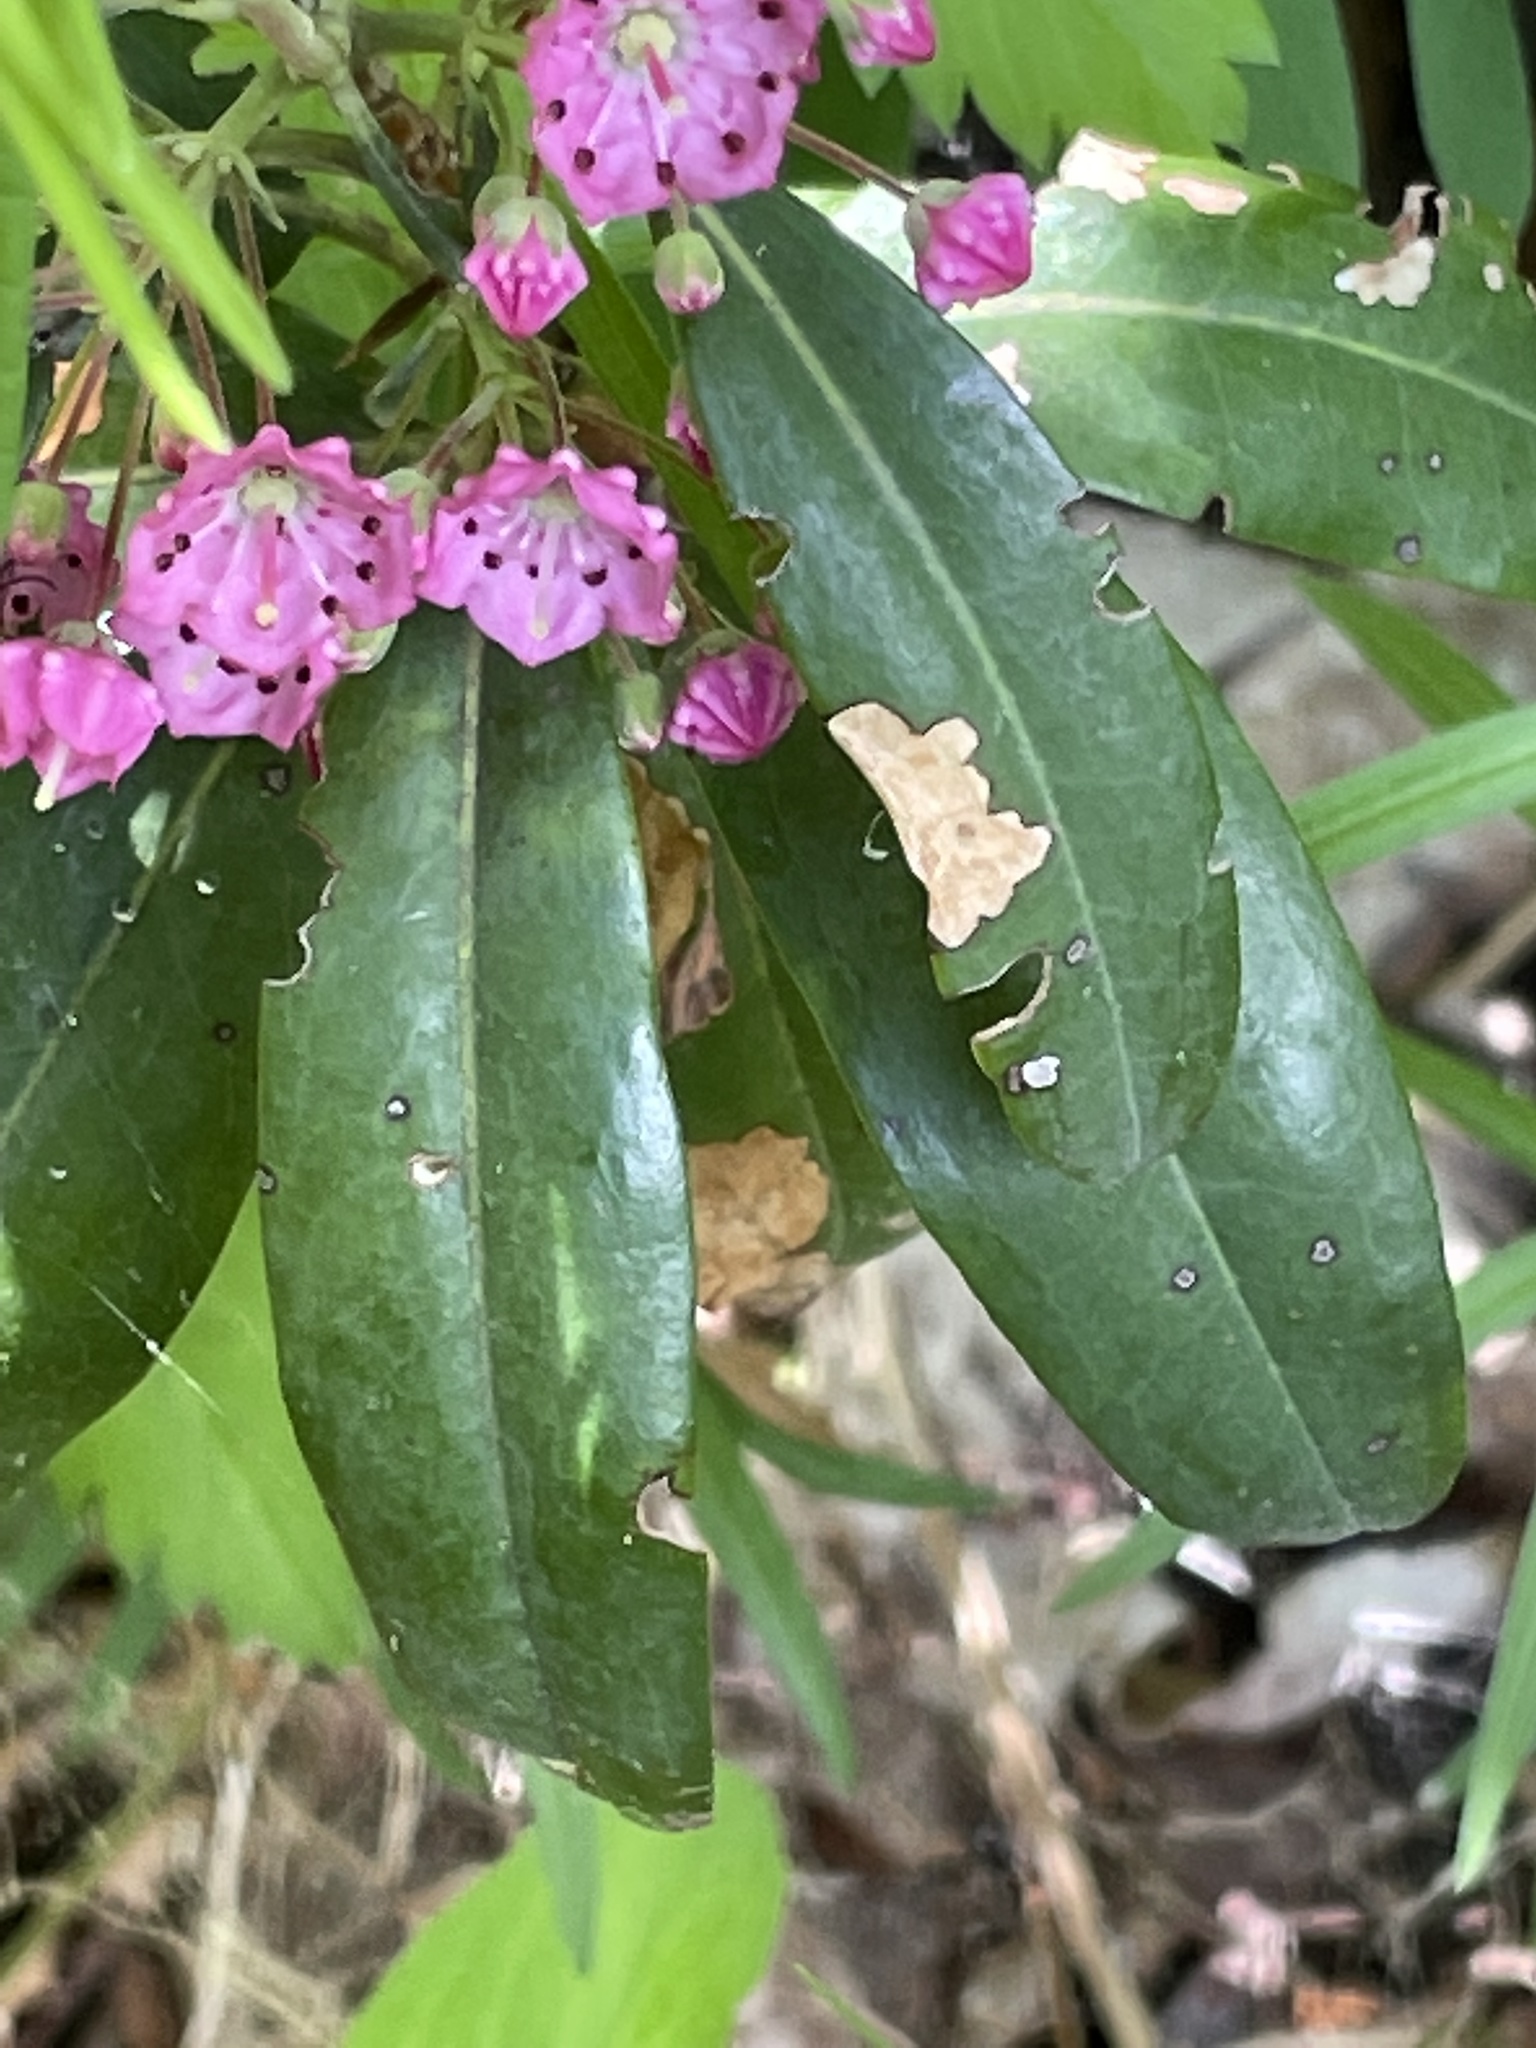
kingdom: Plantae
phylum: Tracheophyta
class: Magnoliopsida
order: Ericales
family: Ericaceae
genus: Kalmia
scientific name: Kalmia angustifolia
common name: Sheep-laurel
